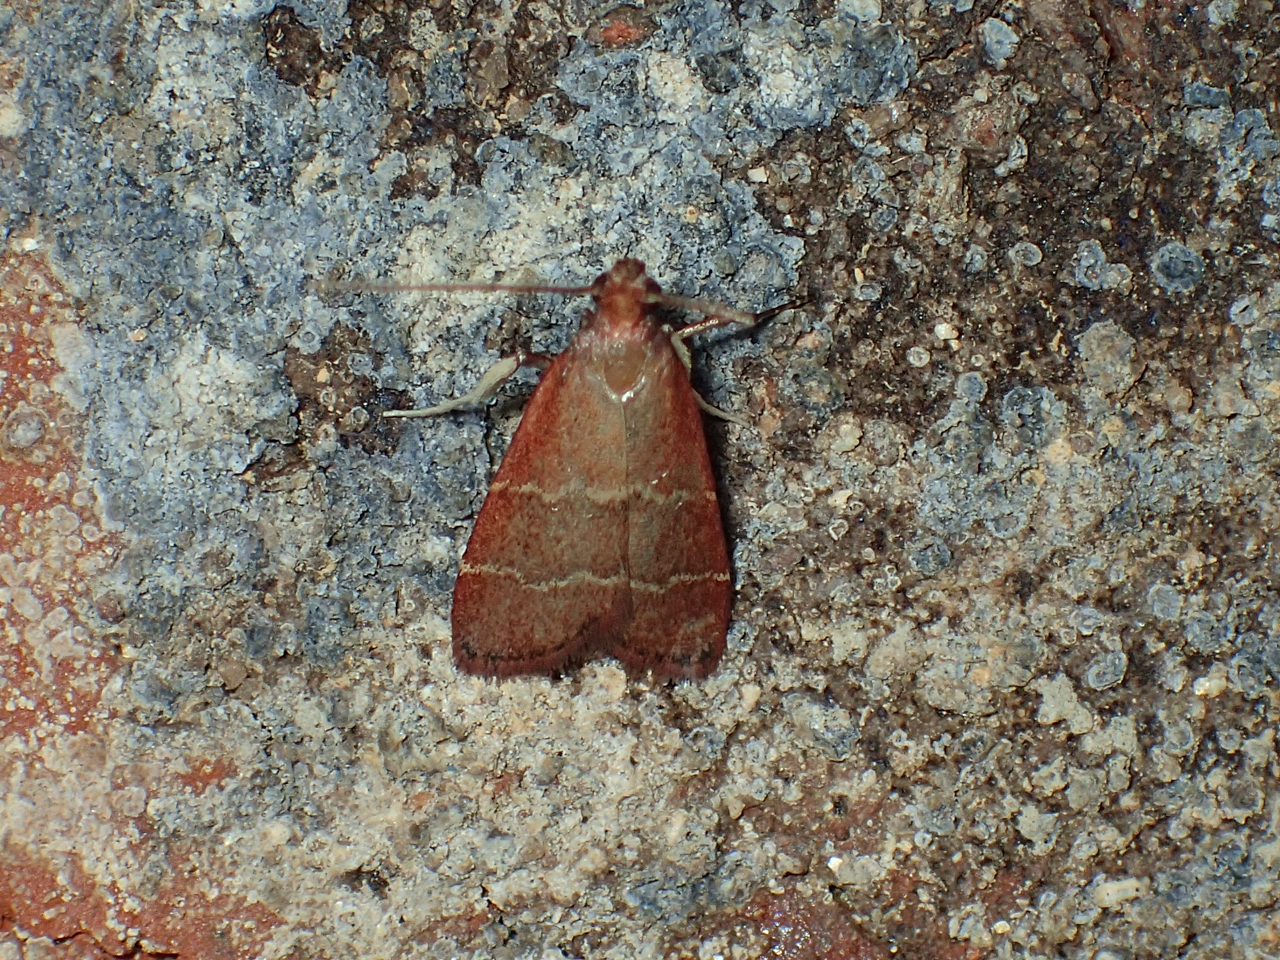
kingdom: Animalia
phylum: Arthropoda
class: Insecta
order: Lepidoptera
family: Pyralidae
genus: Arta
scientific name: Arta
